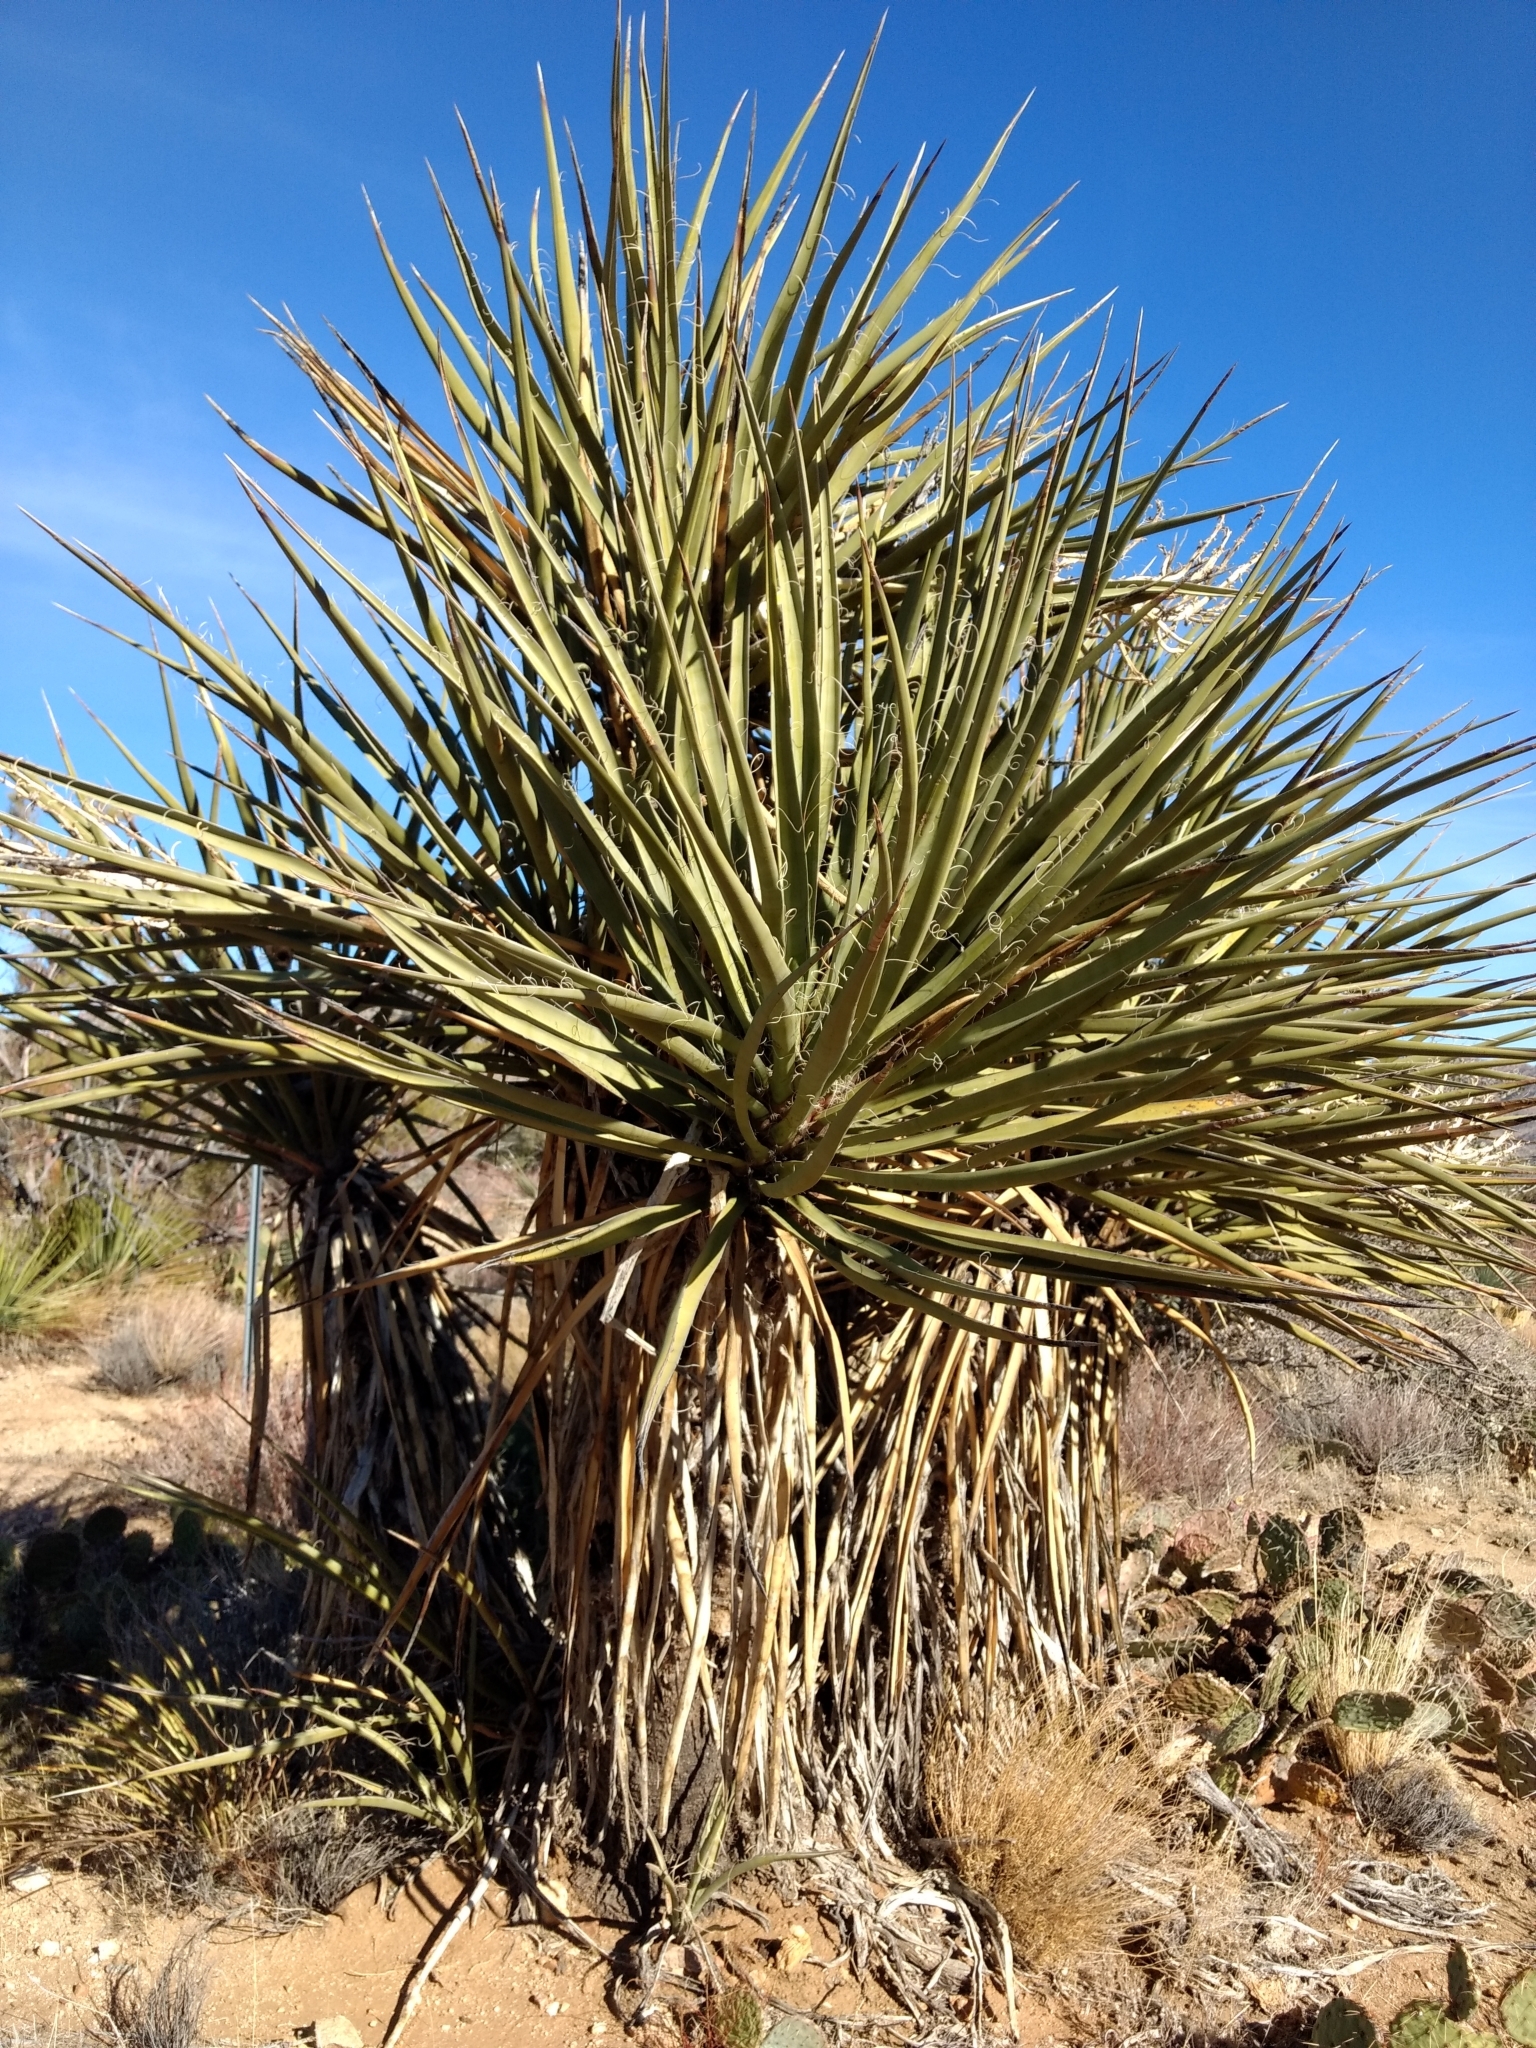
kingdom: Plantae
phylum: Tracheophyta
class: Liliopsida
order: Asparagales
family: Asparagaceae
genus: Yucca
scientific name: Yucca schidigera
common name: Mojave yucca
